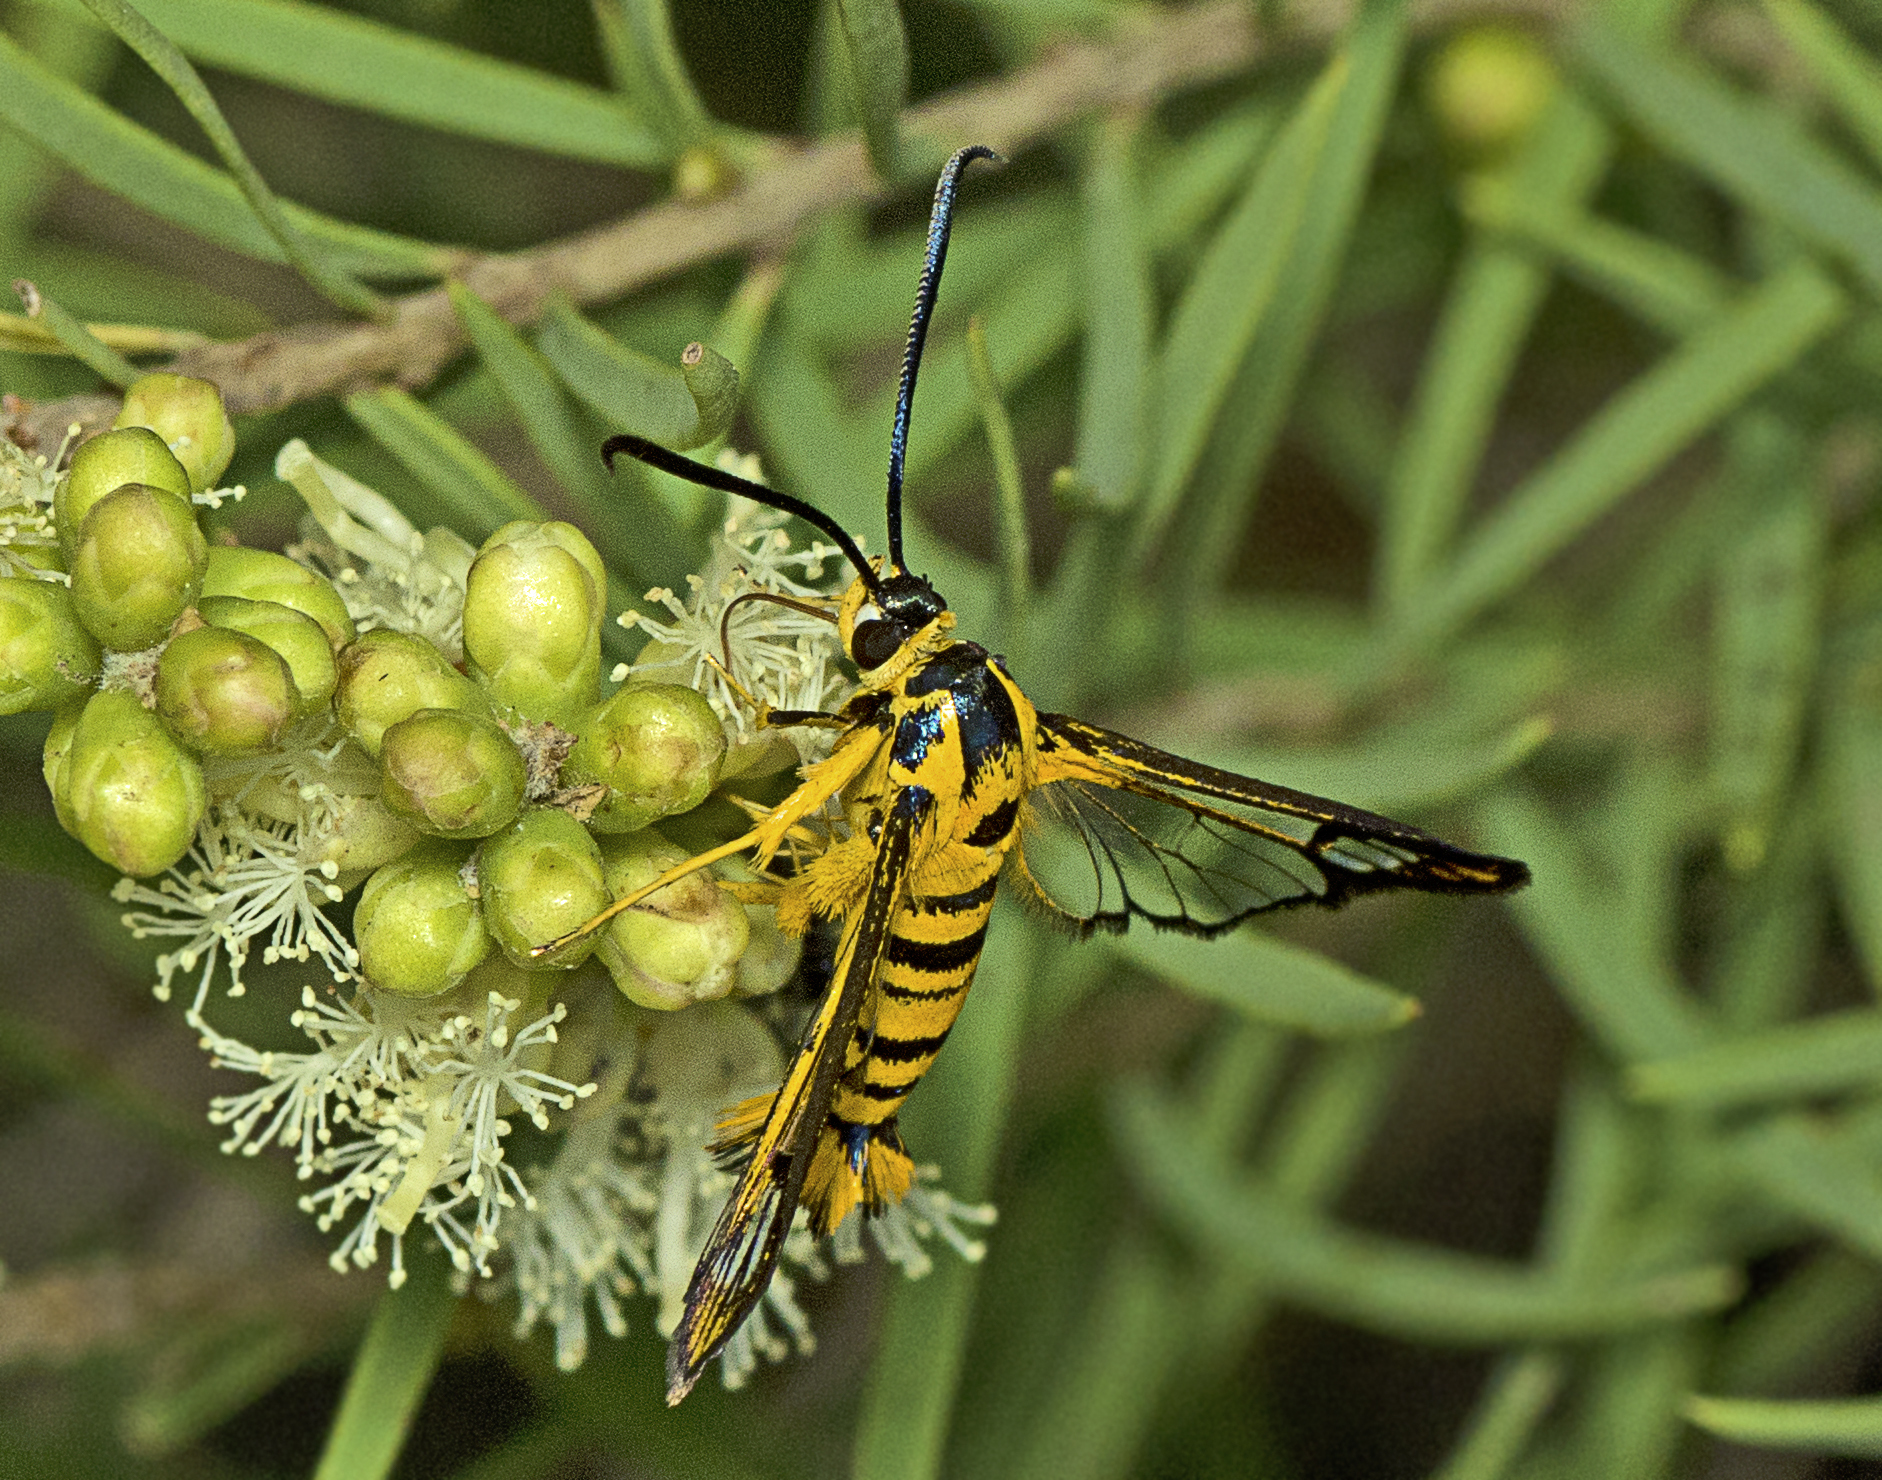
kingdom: Animalia
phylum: Arthropoda
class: Insecta
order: Lepidoptera
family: Sesiidae
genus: Paranthrenella
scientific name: Paranthrenella melanocera
